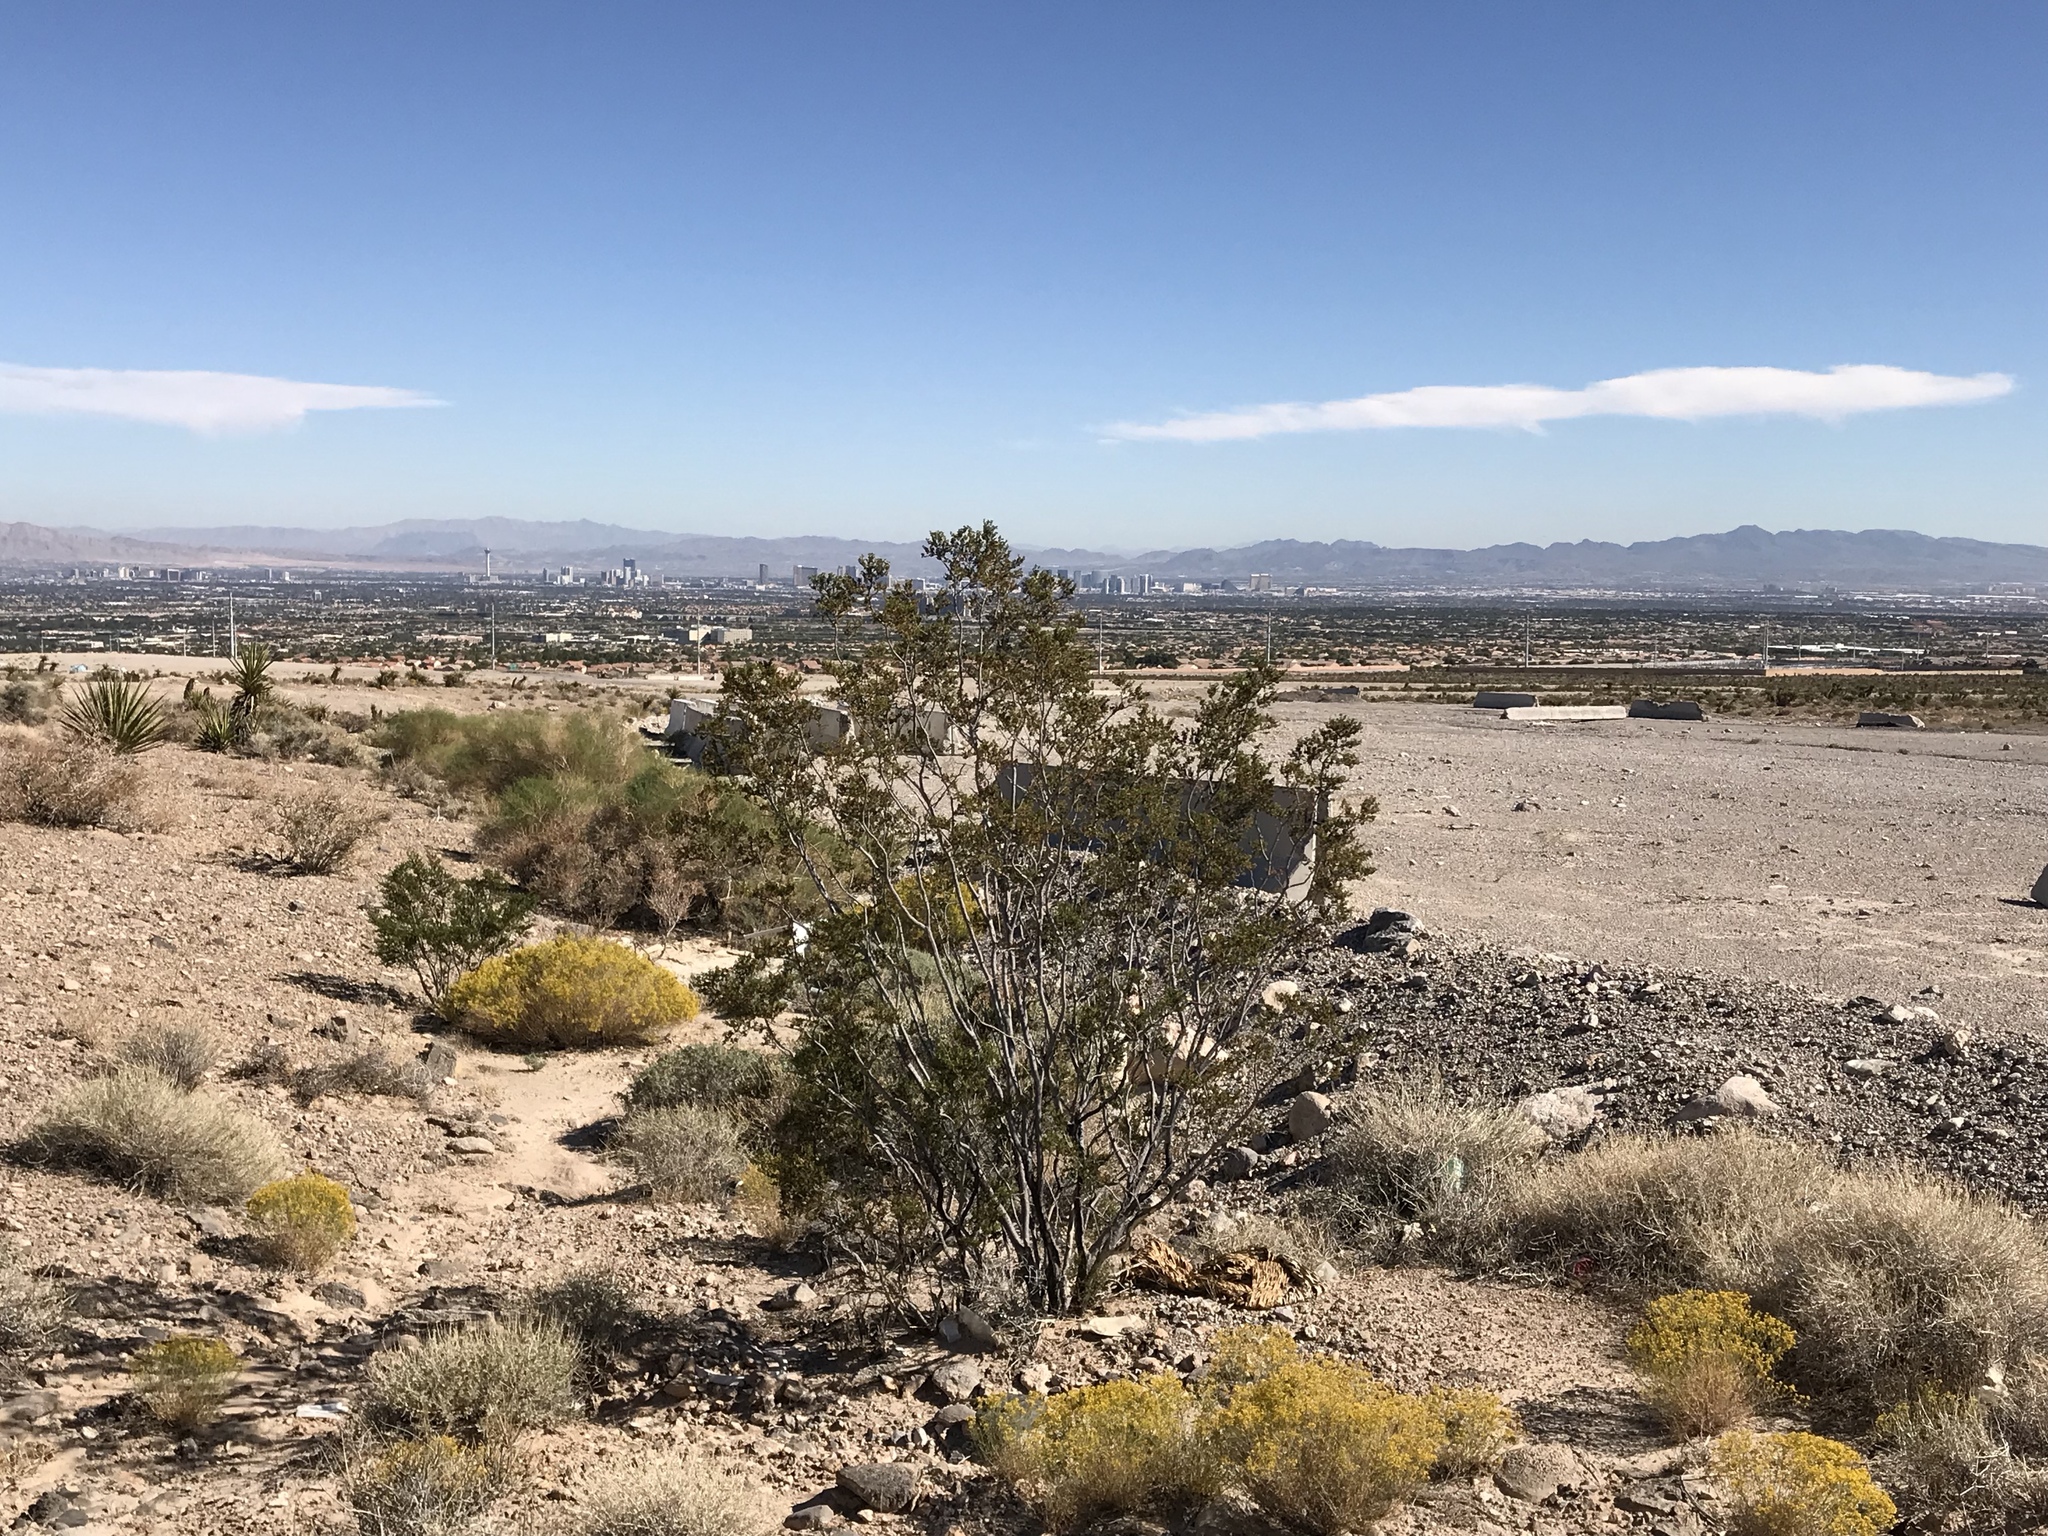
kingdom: Plantae
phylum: Tracheophyta
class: Magnoliopsida
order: Zygophyllales
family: Zygophyllaceae
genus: Larrea
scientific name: Larrea tridentata
